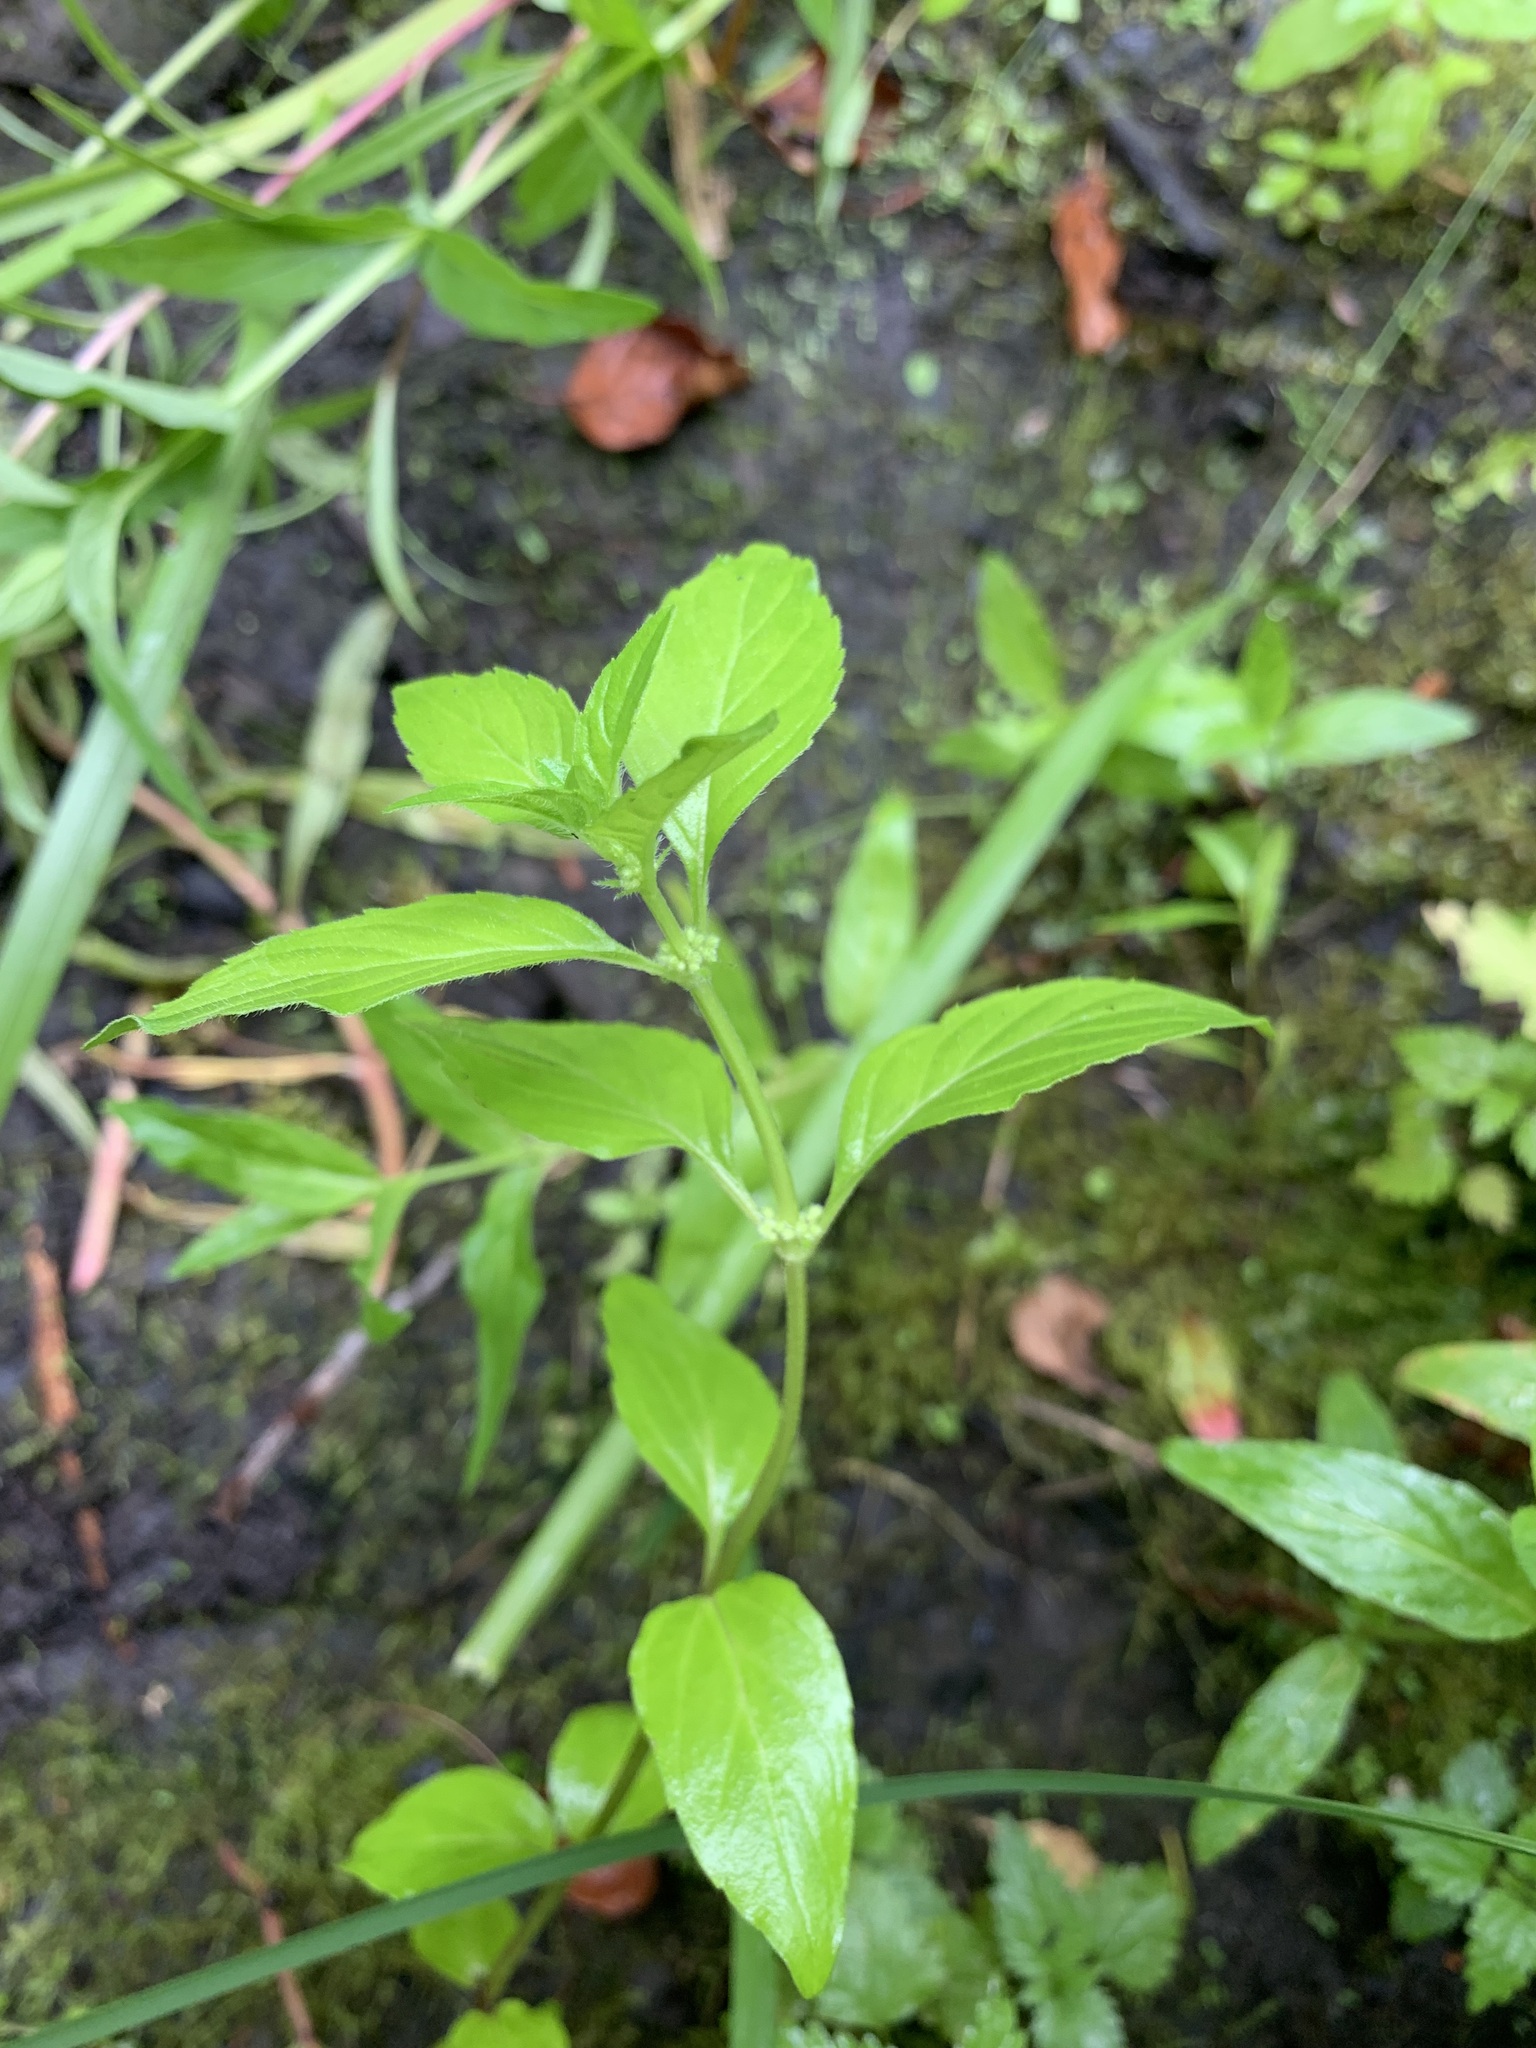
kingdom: Plantae
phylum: Tracheophyta
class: Magnoliopsida
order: Lamiales
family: Lamiaceae
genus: Mentha
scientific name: Mentha arvensis
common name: Corn mint
